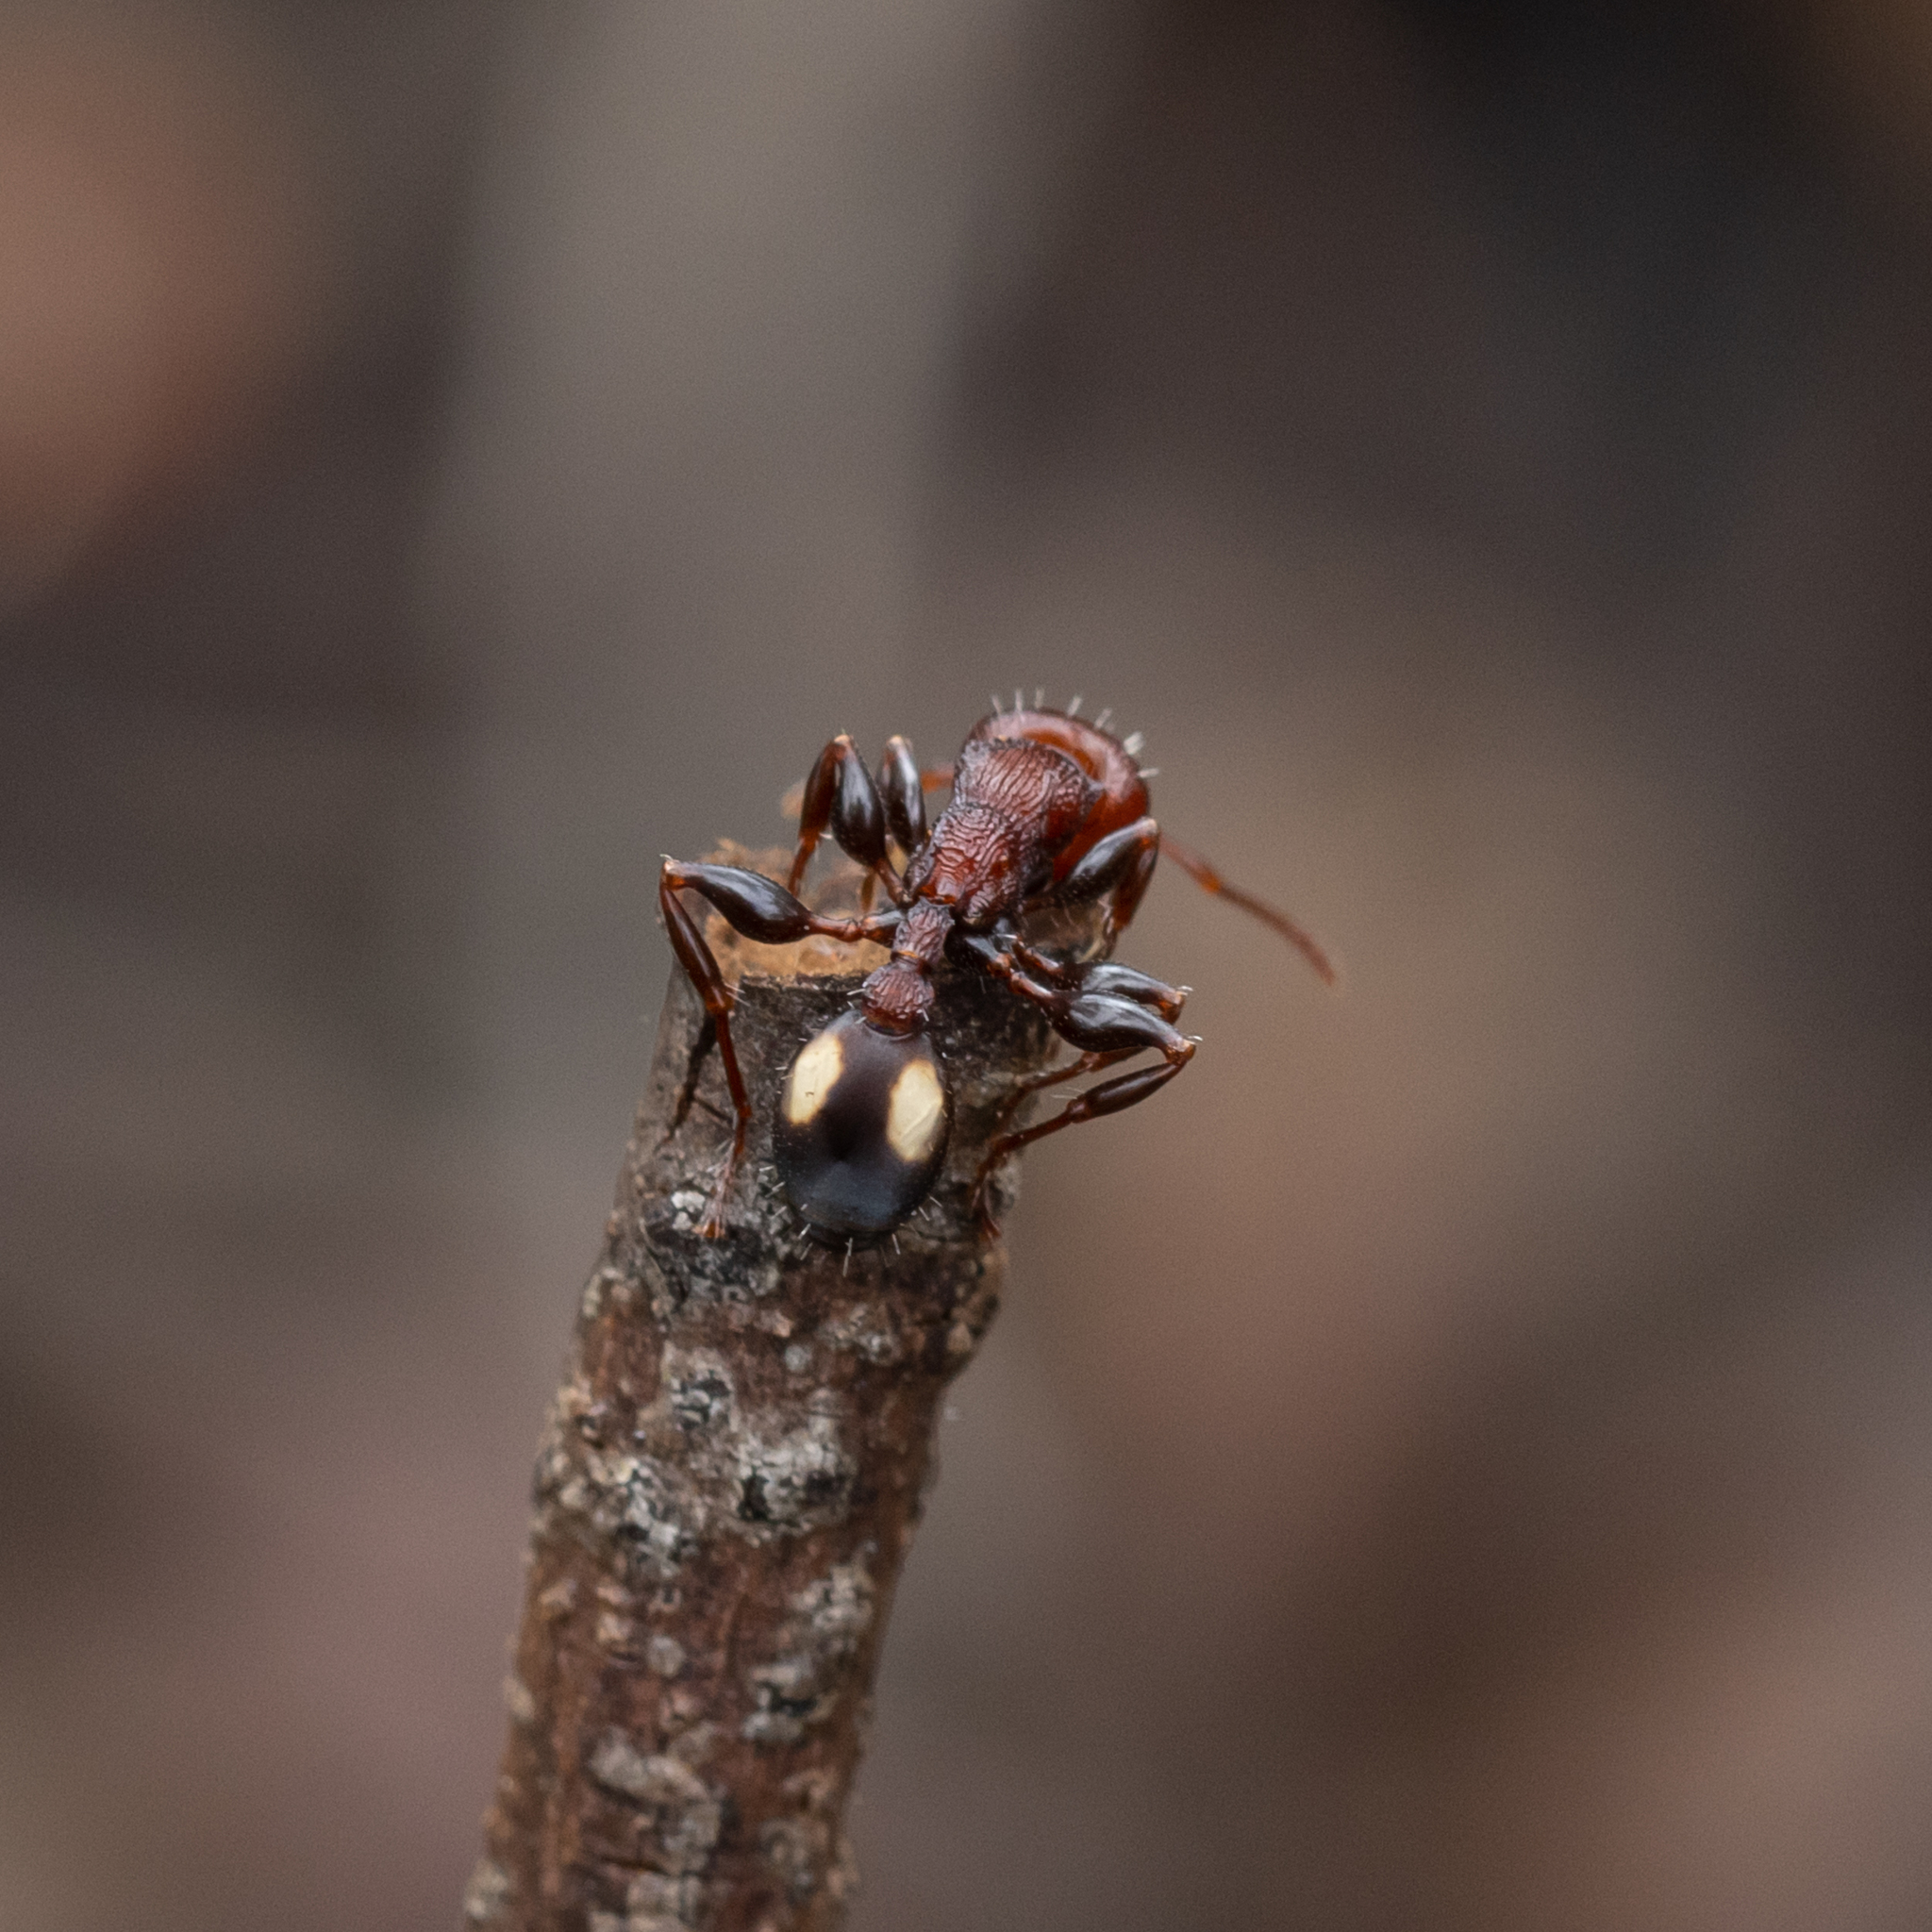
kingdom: Animalia
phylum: Arthropoda
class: Insecta
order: Hymenoptera
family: Formicidae
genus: Podomyrma
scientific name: Podomyrma adelaidae
